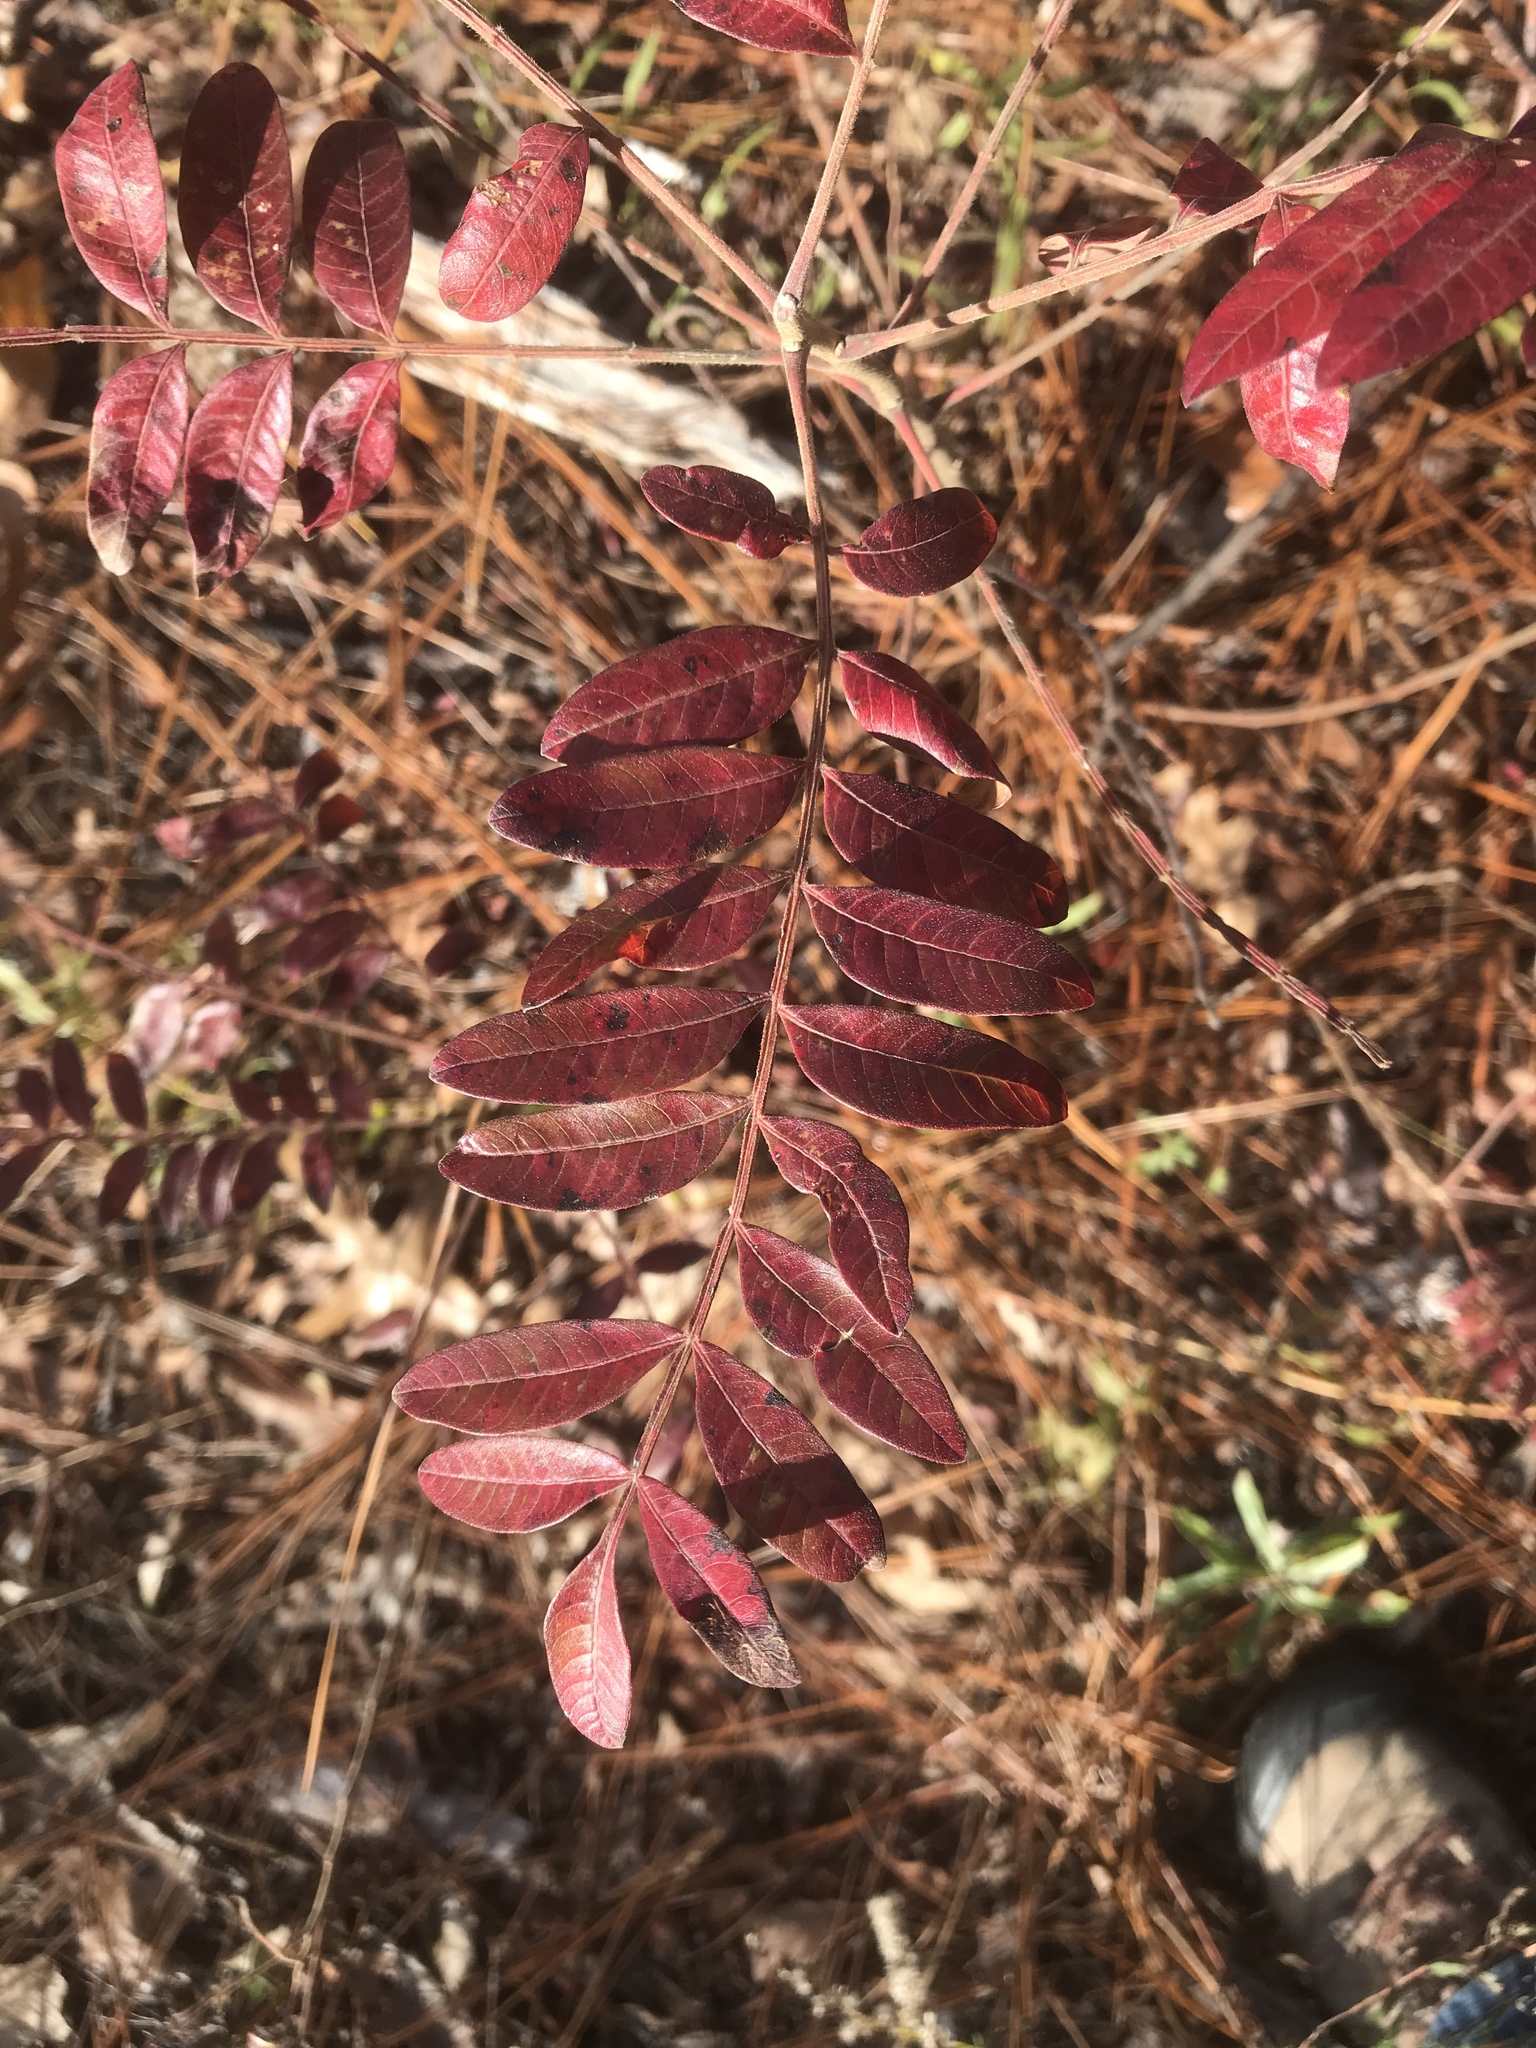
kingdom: Plantae
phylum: Tracheophyta
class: Magnoliopsida
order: Sapindales
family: Anacardiaceae
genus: Rhus
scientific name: Rhus copallina
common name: Shining sumac
